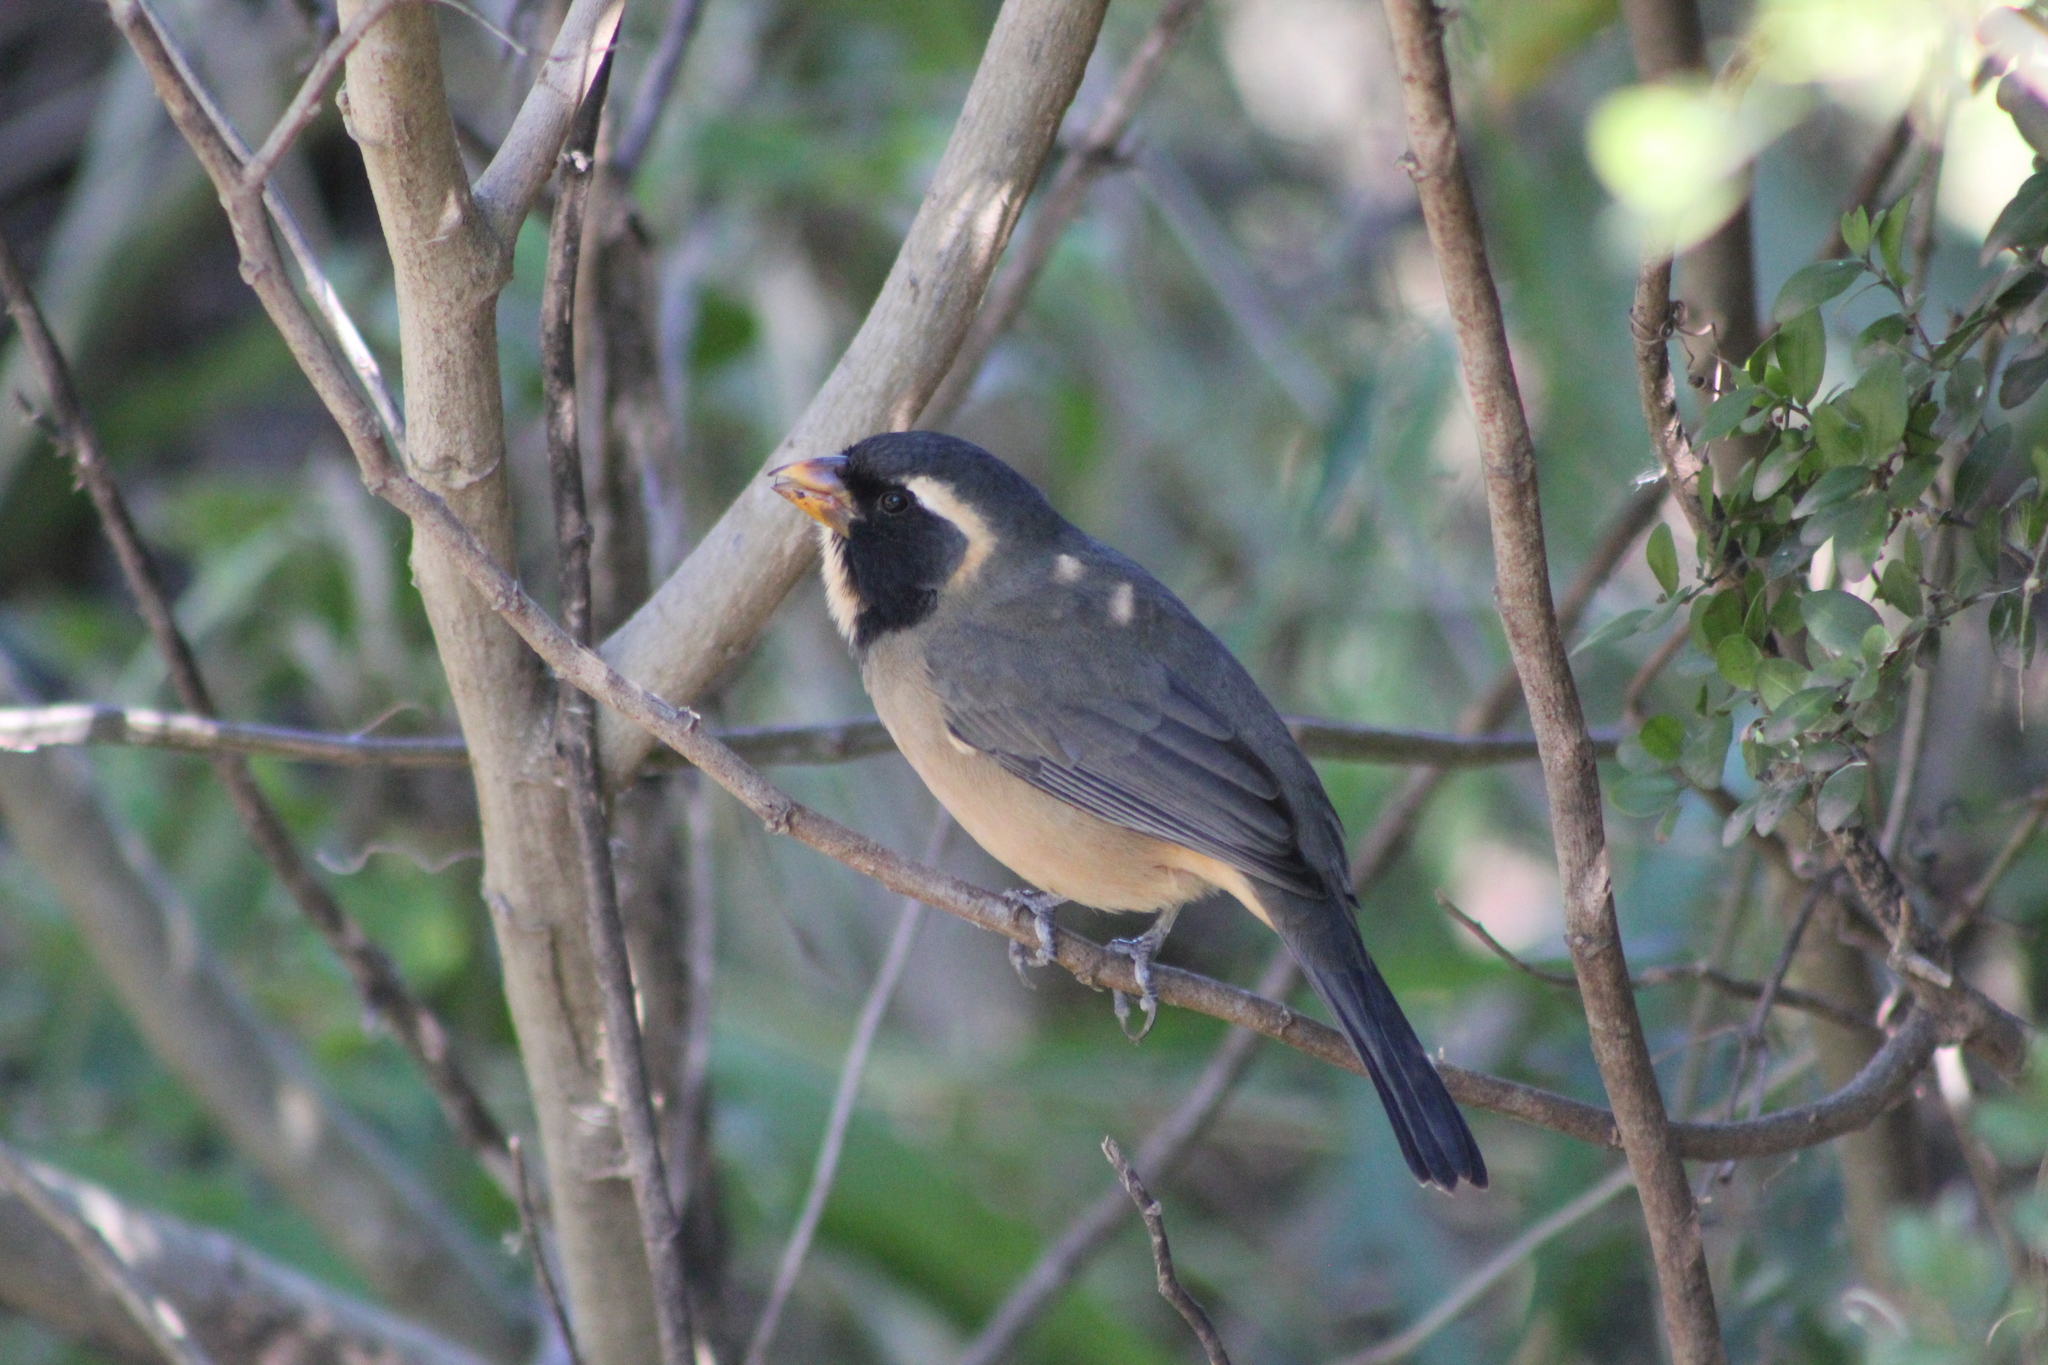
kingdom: Animalia
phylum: Chordata
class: Aves
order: Passeriformes
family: Thraupidae
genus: Saltator
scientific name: Saltator aurantiirostris
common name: Golden-billed saltator
